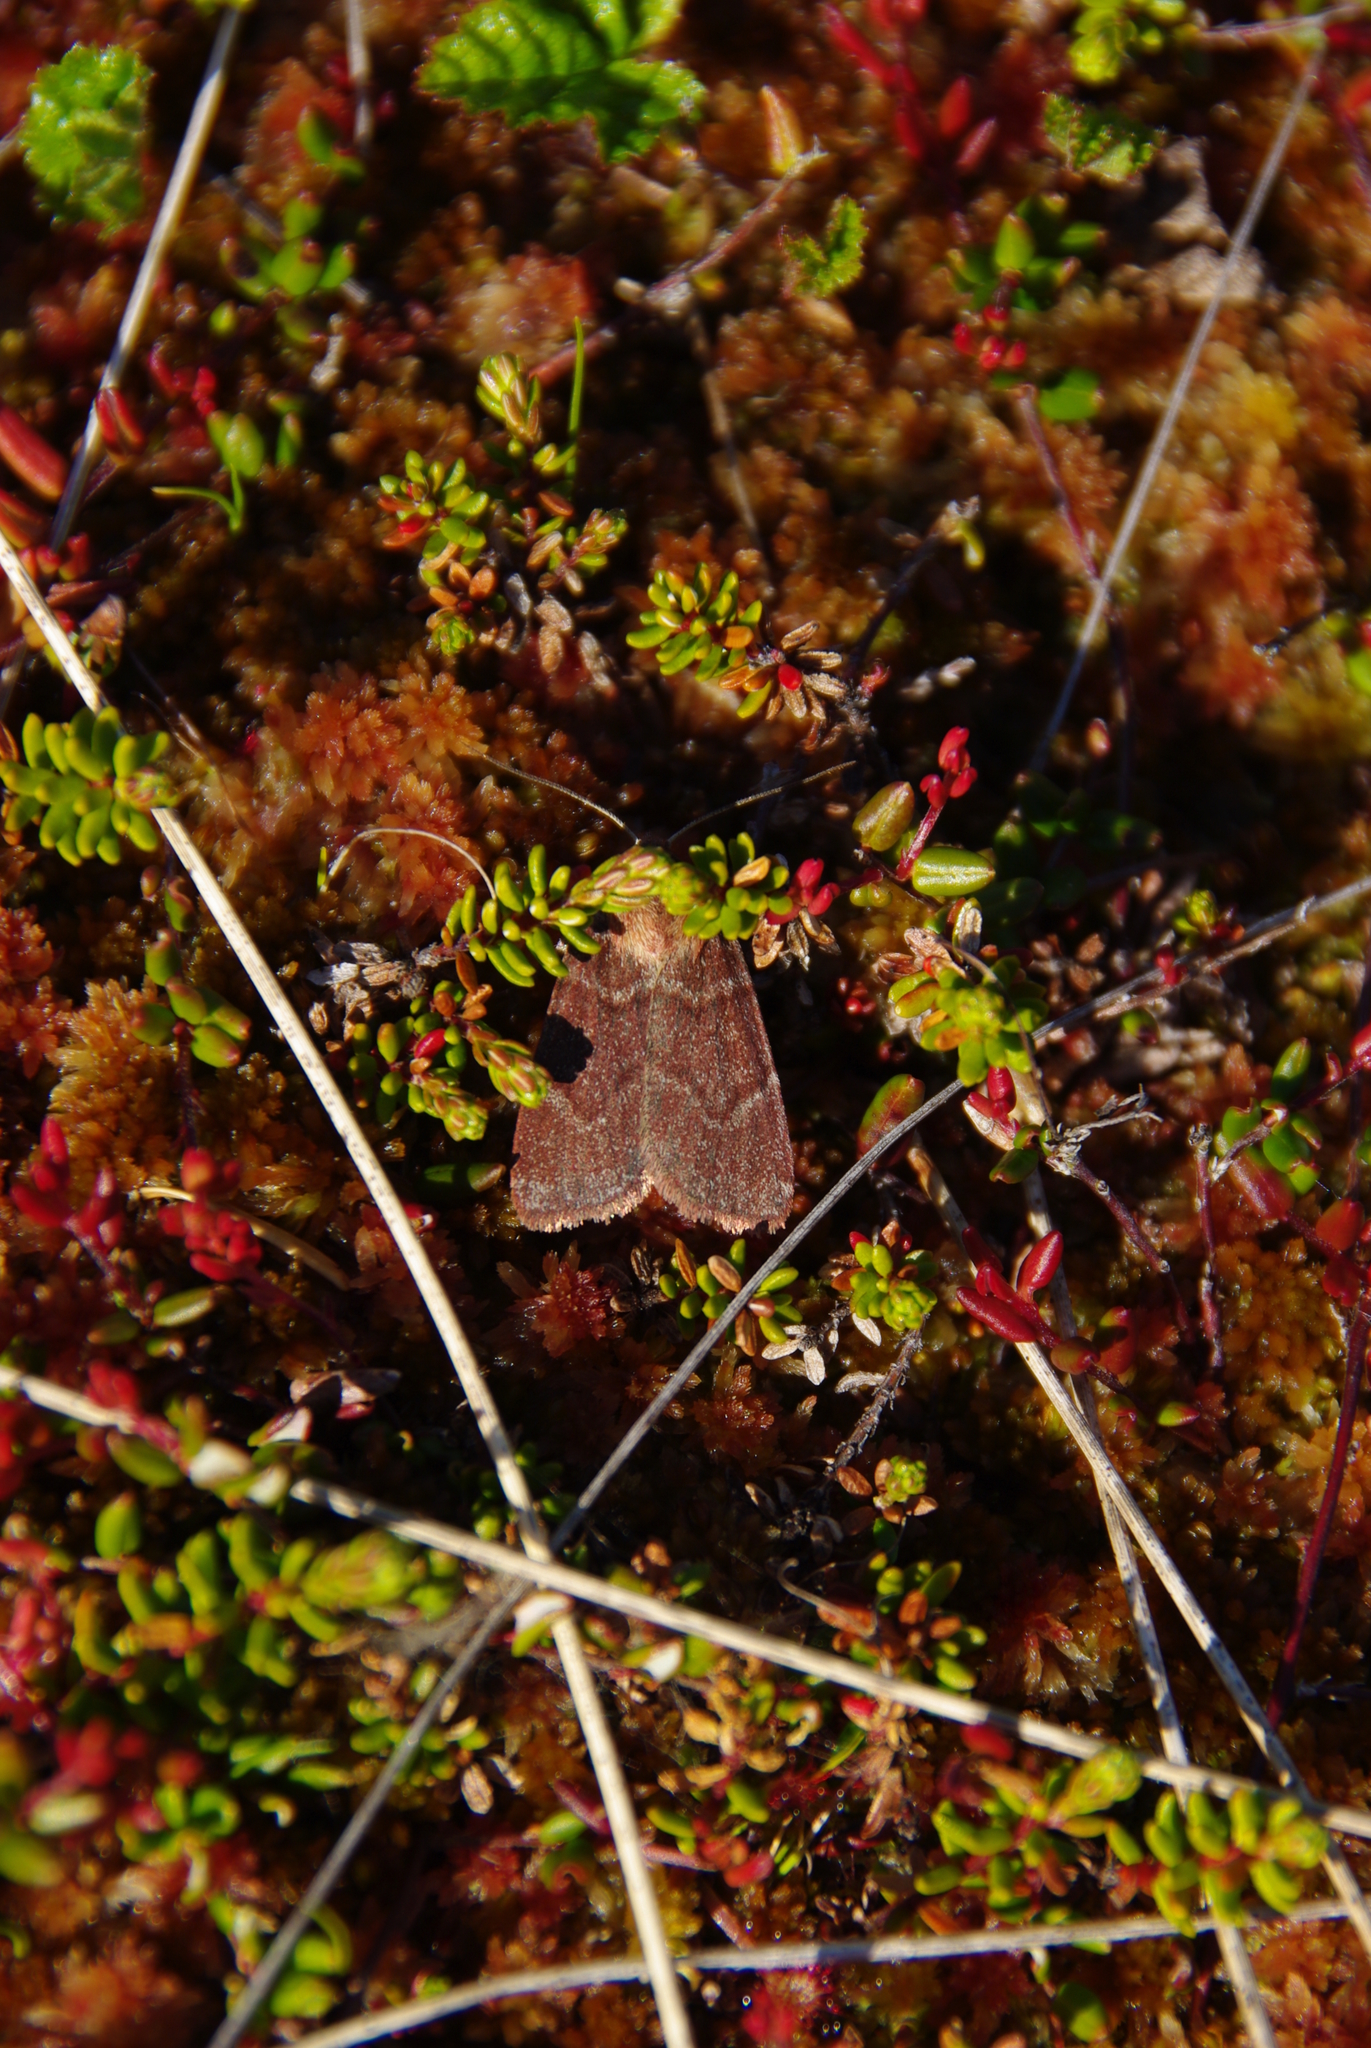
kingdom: Animalia
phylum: Arthropoda
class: Insecta
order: Lepidoptera
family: Noctuidae
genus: Hemipachnobia
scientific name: Hemipachnobia monochromatea
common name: Sundew cutworm moth
